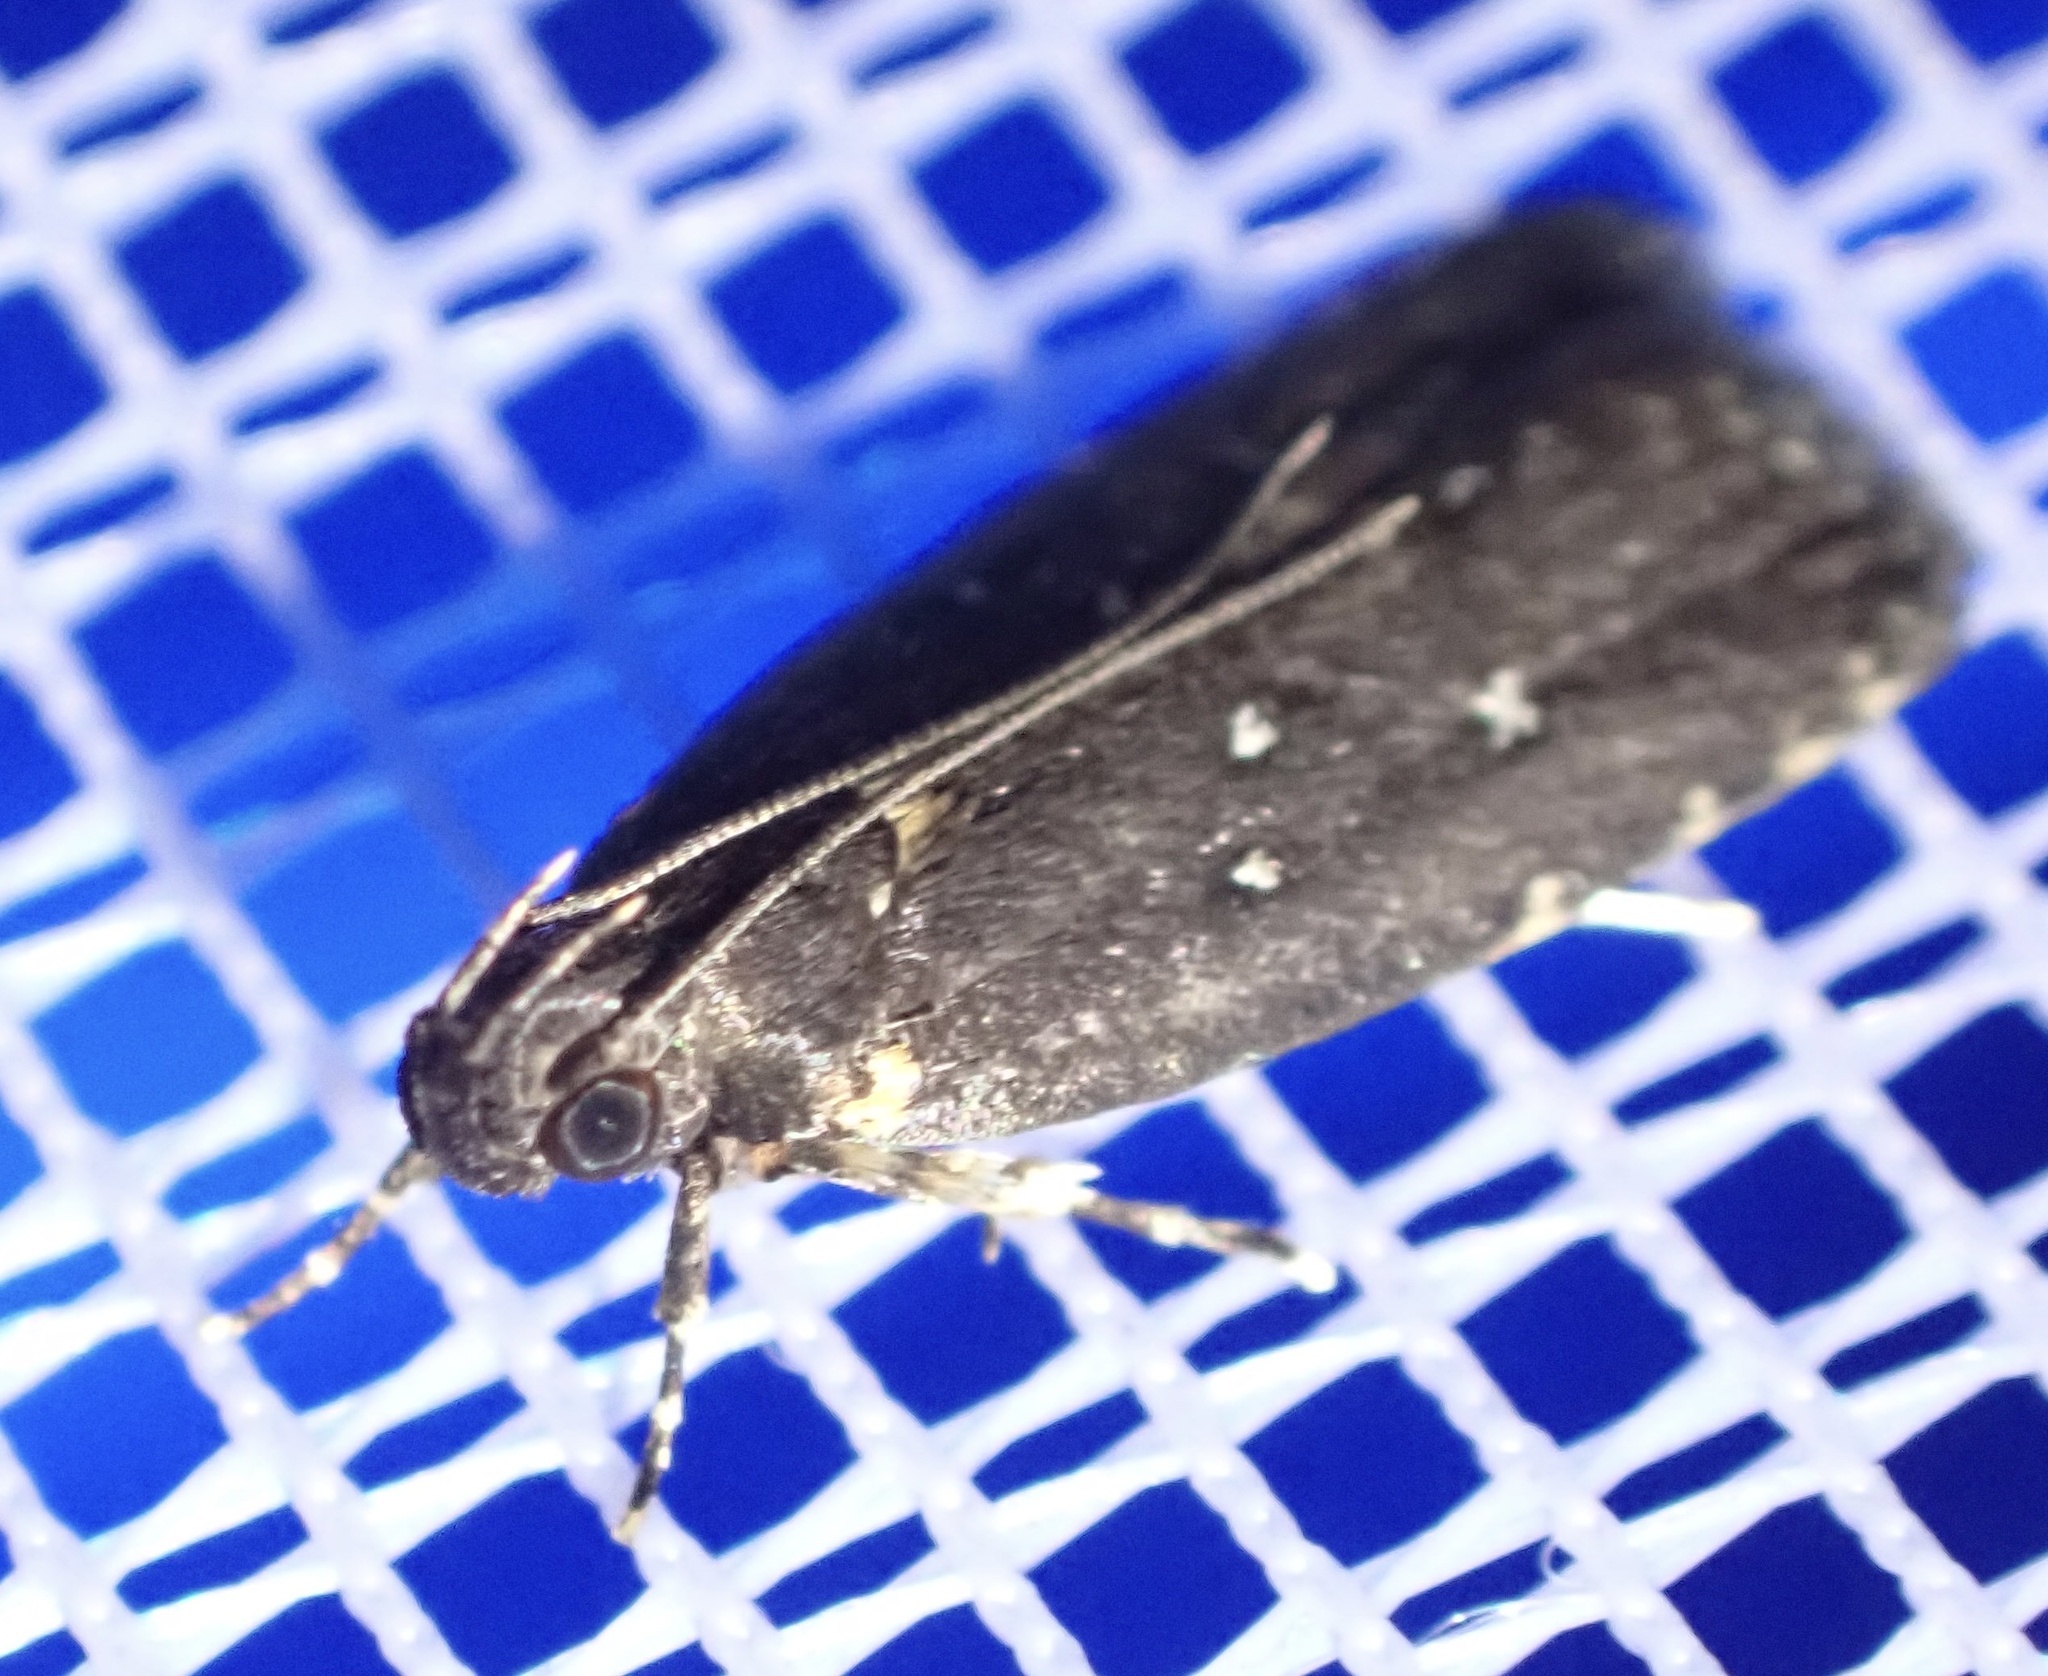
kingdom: Animalia
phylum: Arthropoda
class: Insecta
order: Lepidoptera
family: Gelechiidae
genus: Ardozyga
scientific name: Ardozyga nyctias
